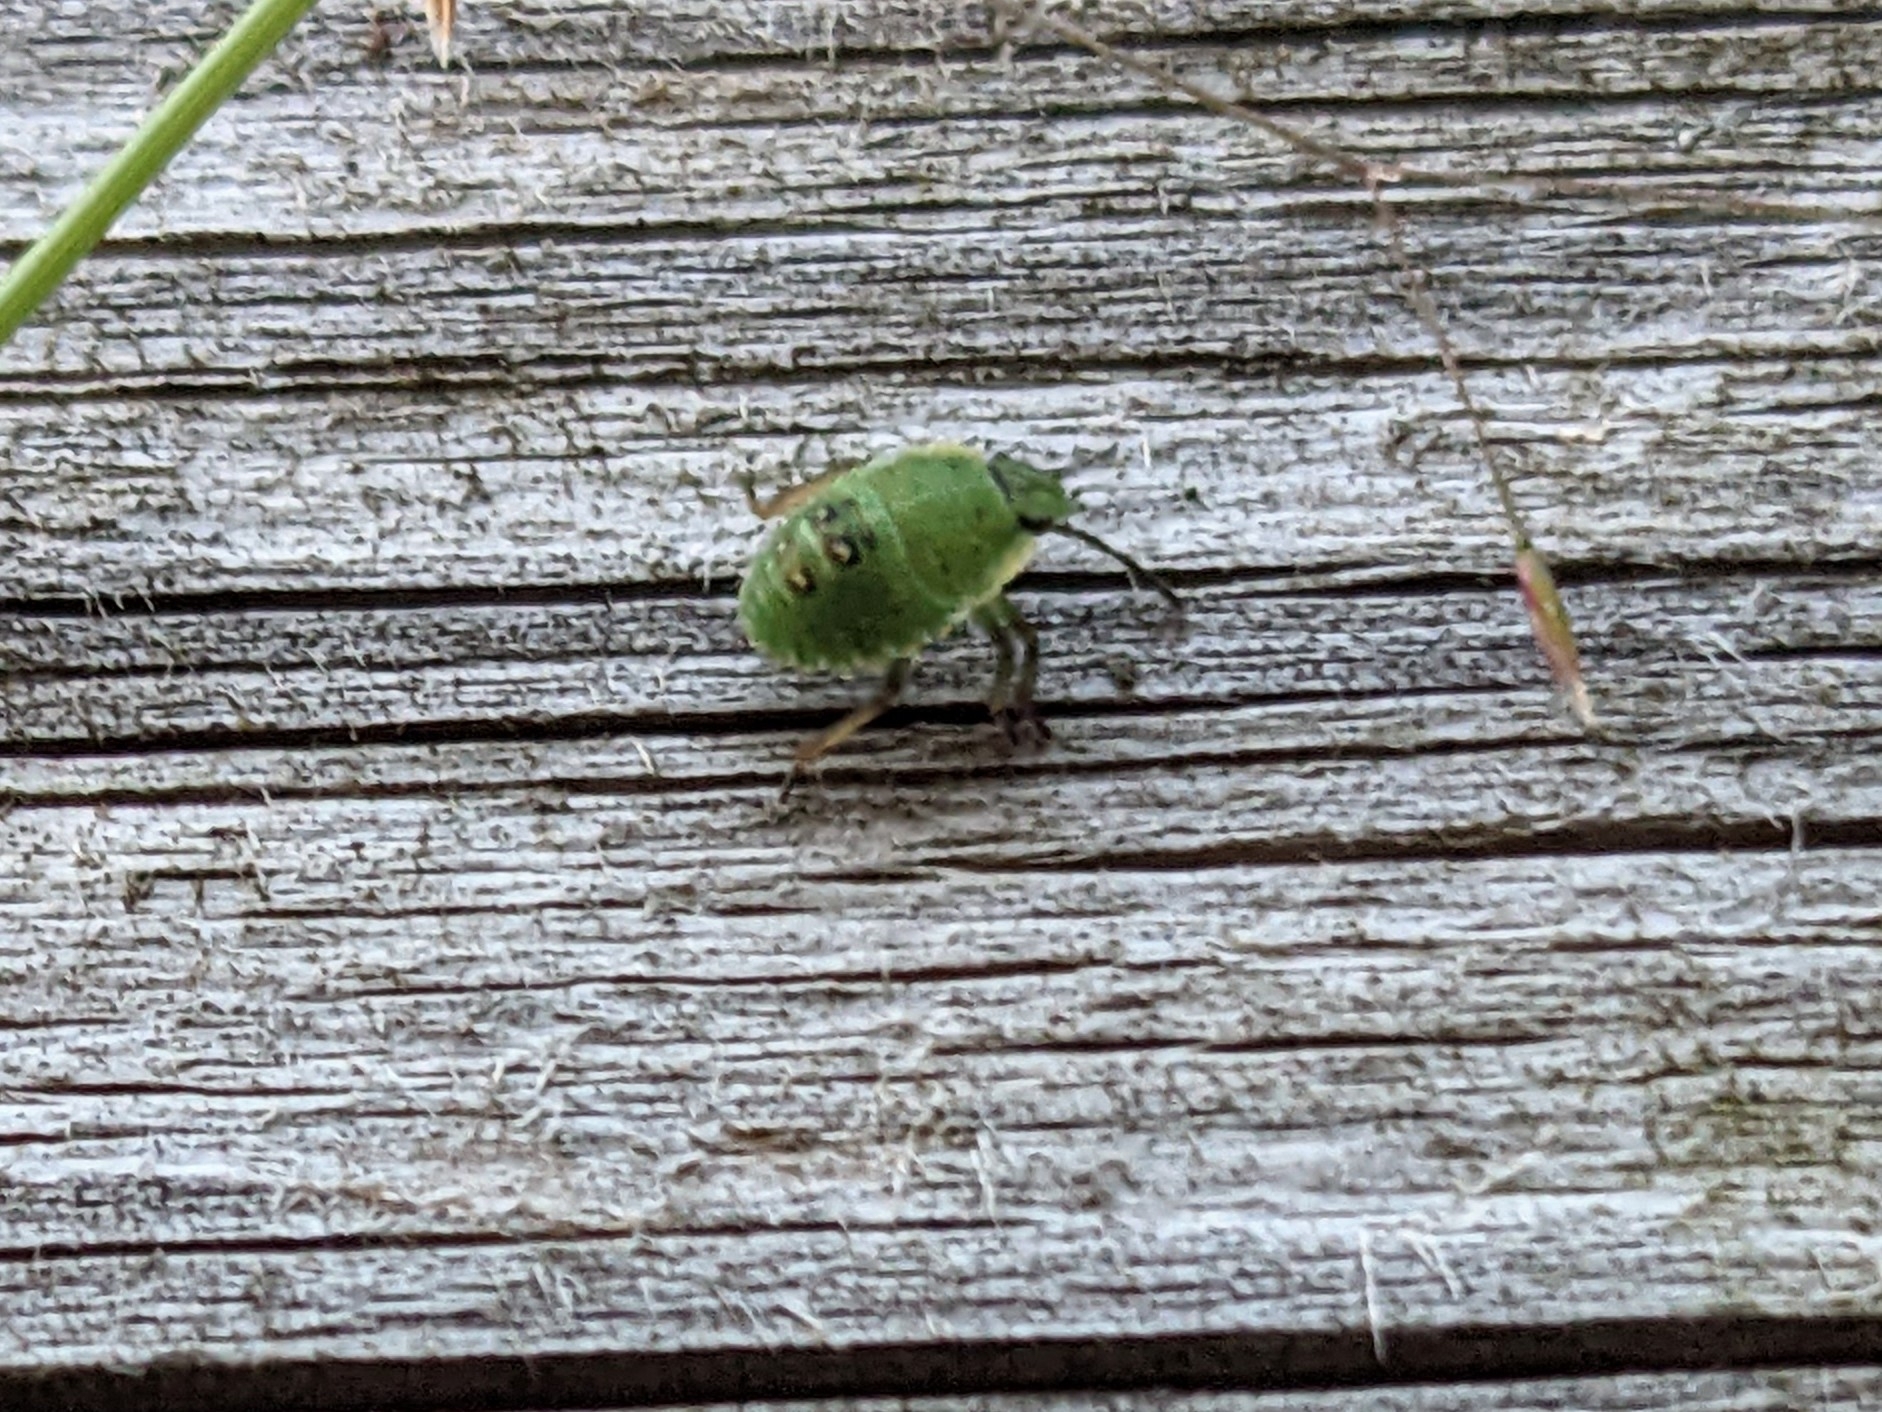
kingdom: Animalia
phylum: Arthropoda
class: Insecta
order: Hemiptera
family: Pentatomidae
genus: Palomena
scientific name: Palomena prasina
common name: Green shieldbug
